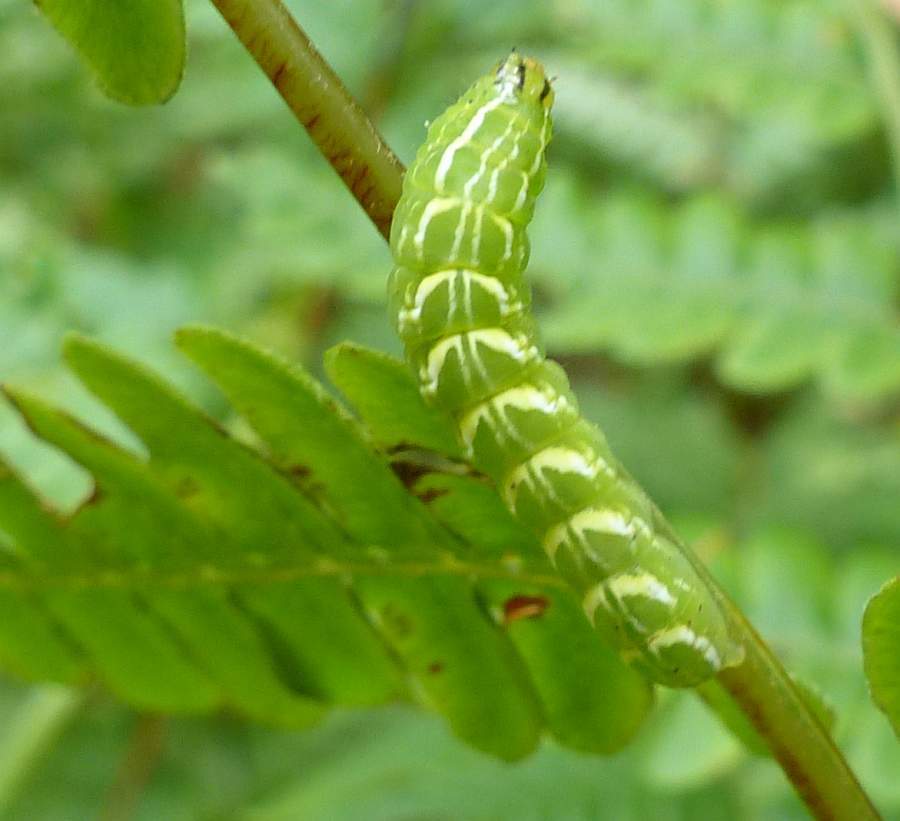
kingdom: Animalia
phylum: Arthropoda
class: Insecta
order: Lepidoptera
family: Noctuidae
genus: Callopistria
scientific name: Callopistria cordata
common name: Silver-spotted fern moth
